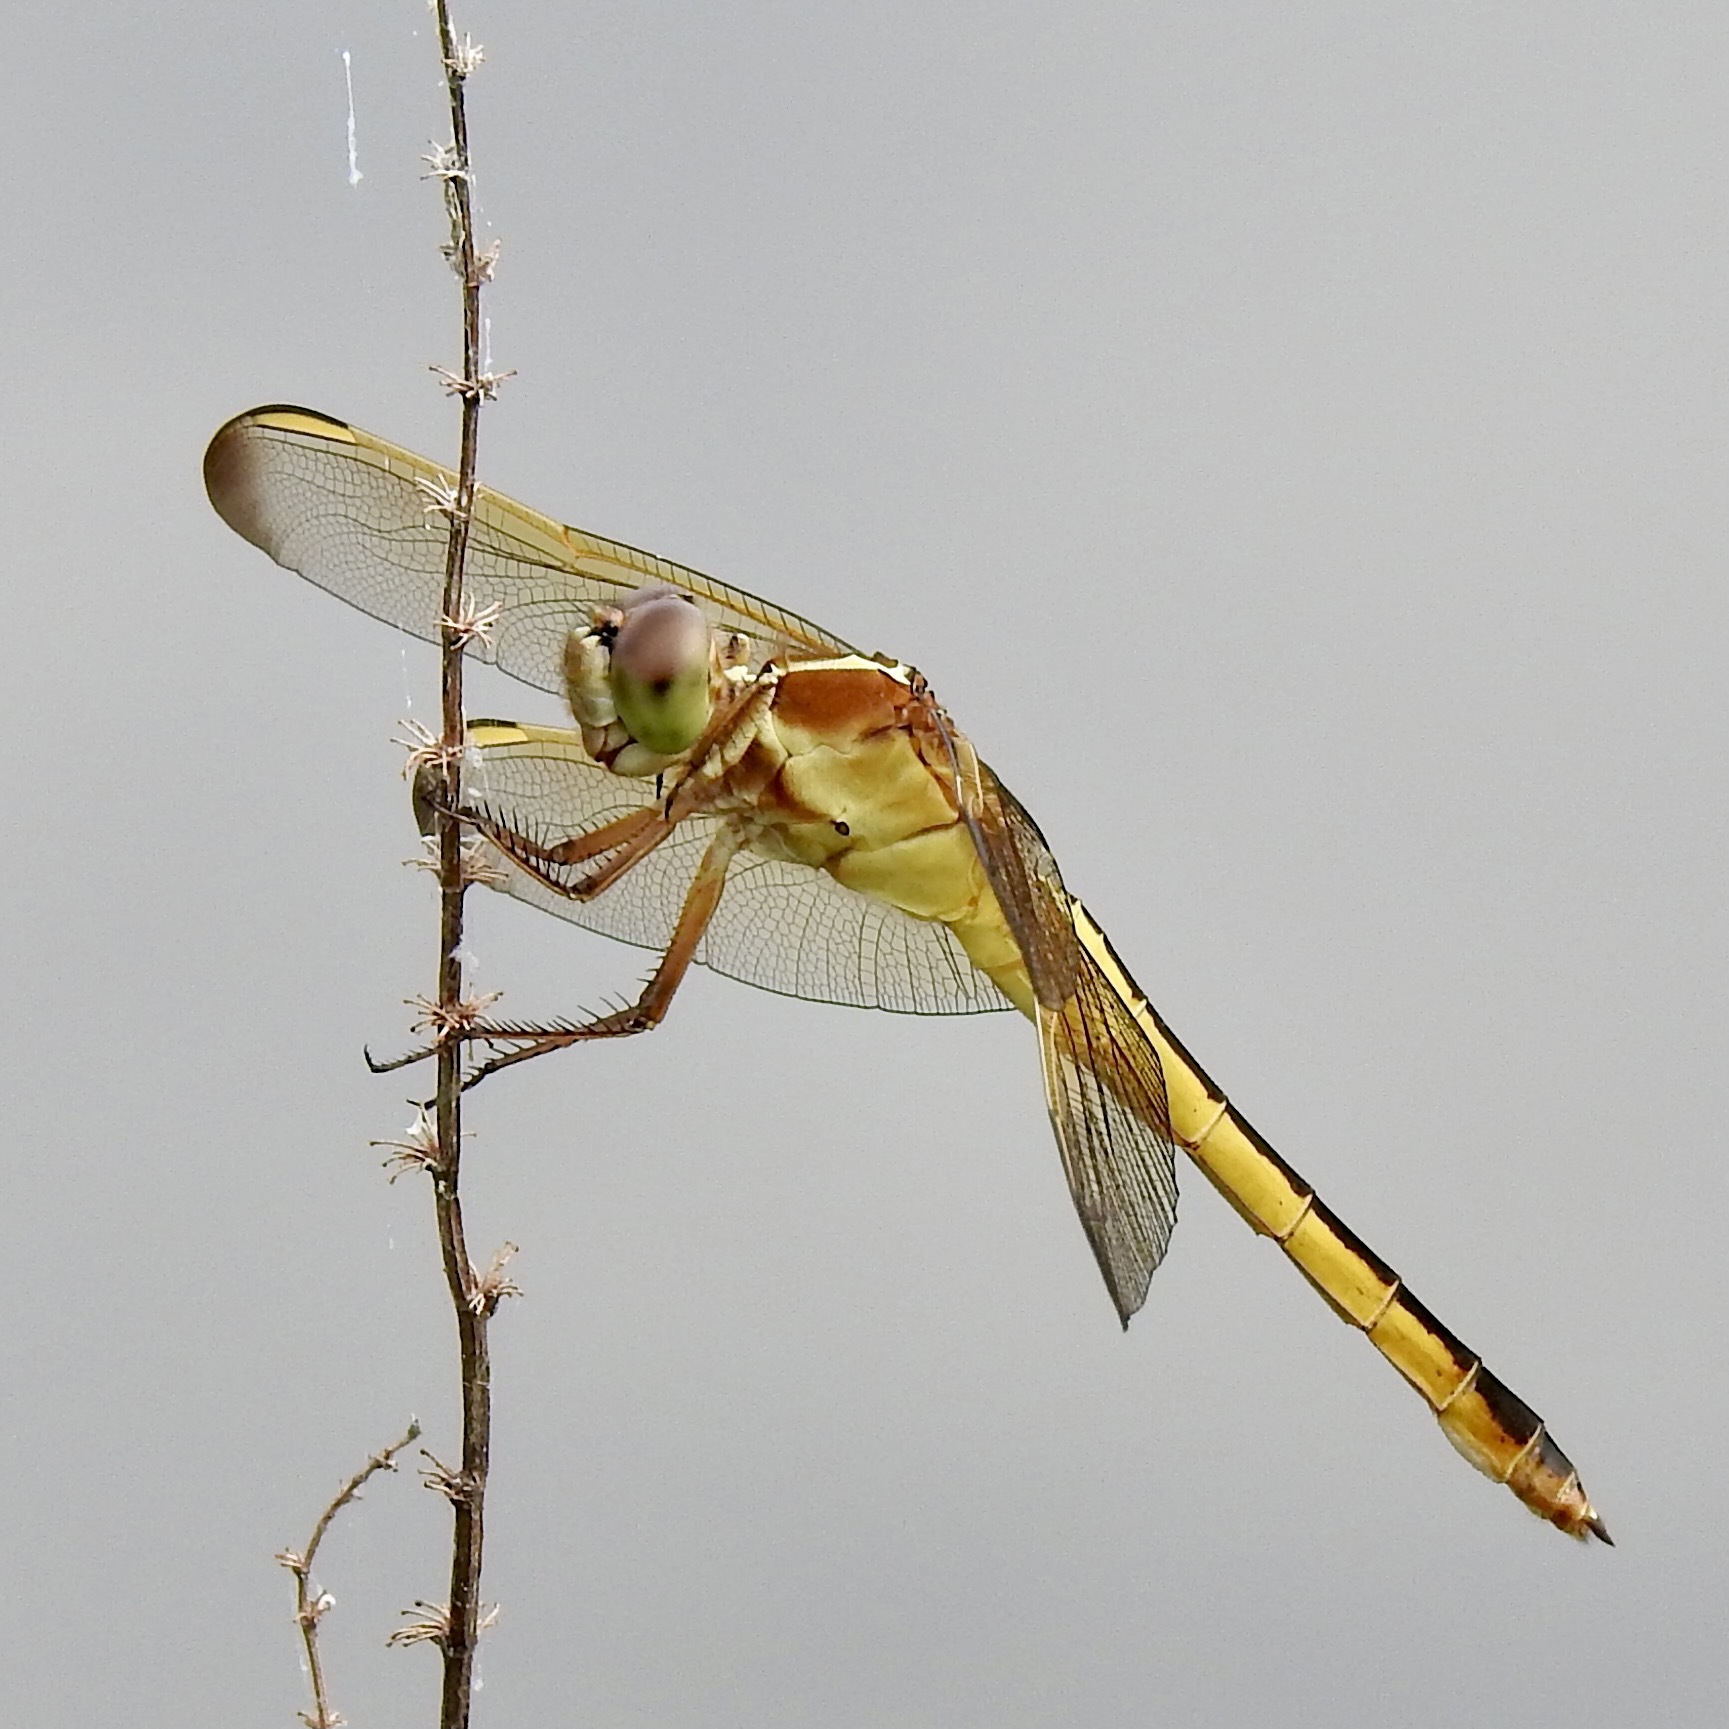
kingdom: Animalia
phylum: Arthropoda
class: Insecta
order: Odonata
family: Libellulidae
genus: Libellula
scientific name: Libellula needhami
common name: Needham's skimmer
